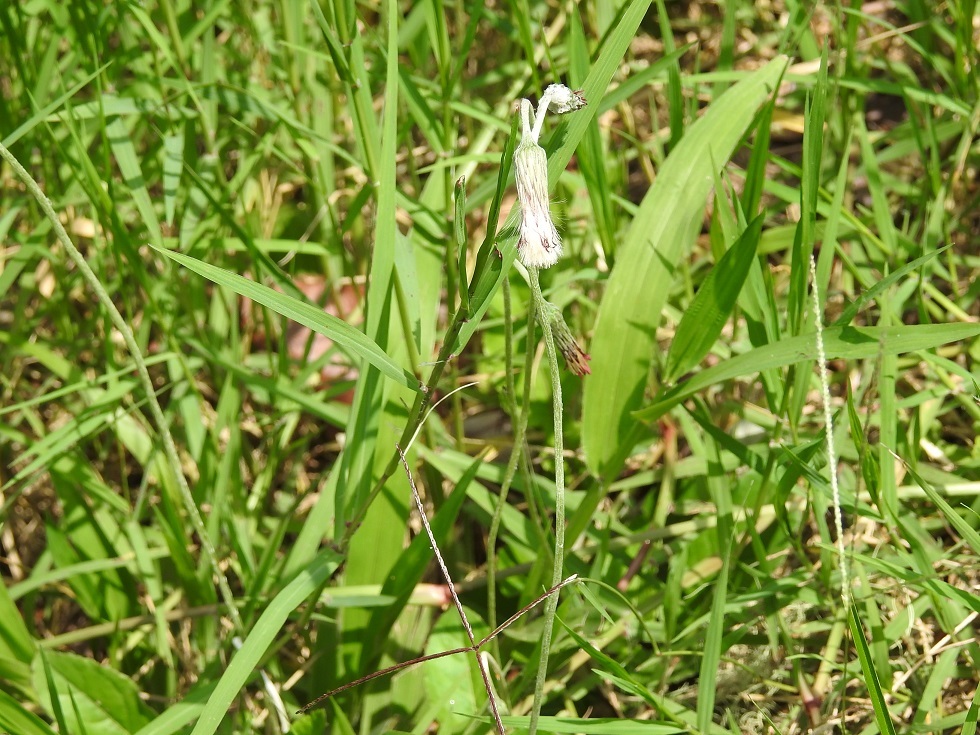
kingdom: Plantae
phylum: Tracheophyta
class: Magnoliopsida
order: Asterales
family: Asteraceae
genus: Chaptalia
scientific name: Chaptalia albicans
